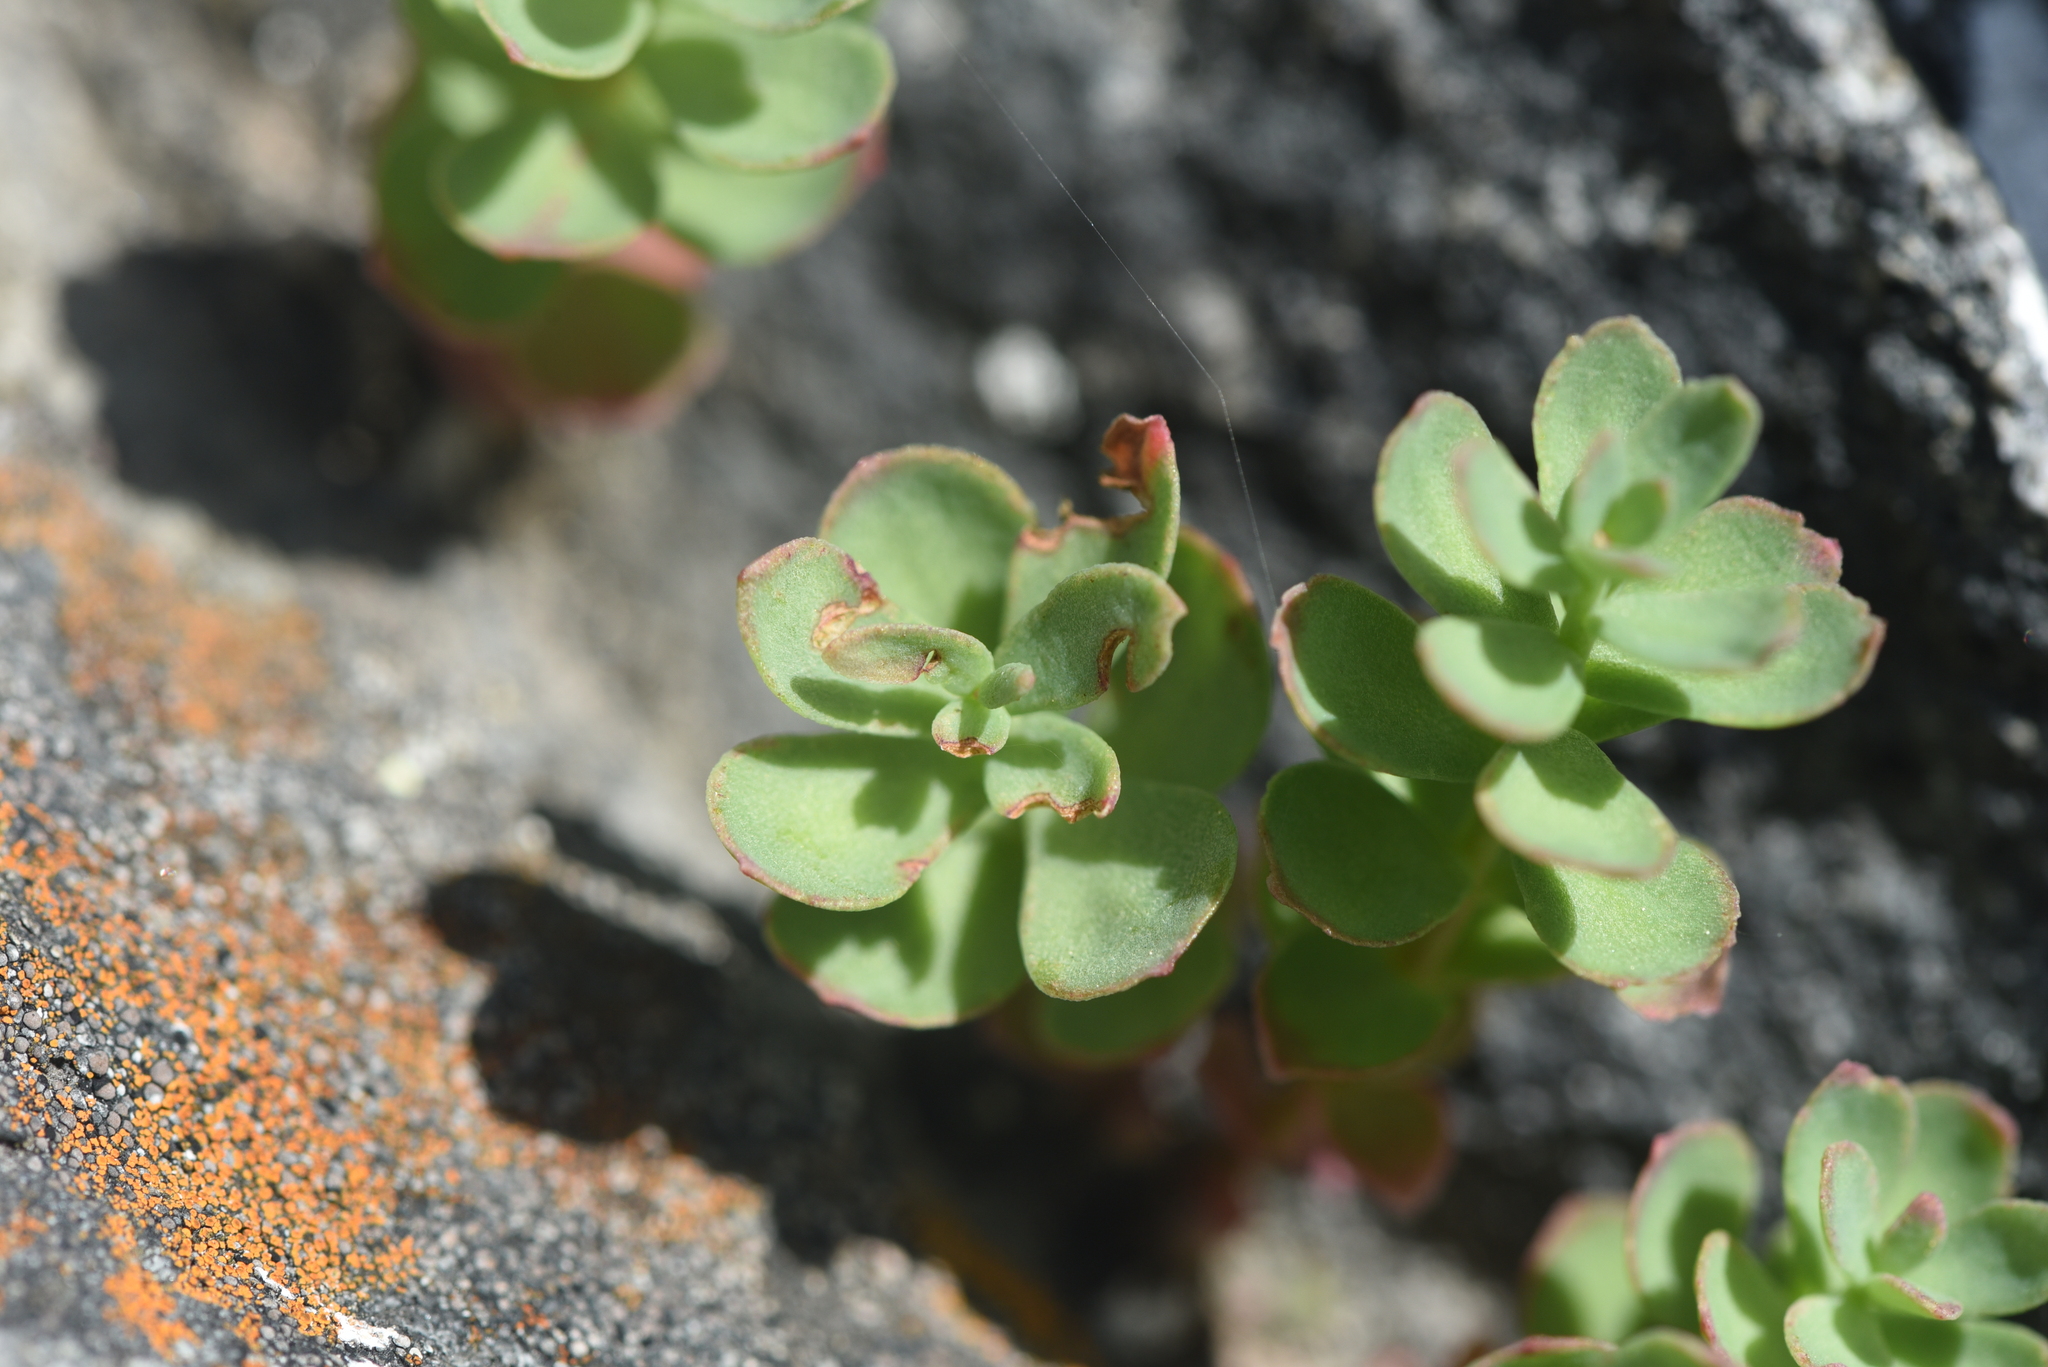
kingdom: Plantae
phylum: Tracheophyta
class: Magnoliopsida
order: Saxifragales
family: Crassulaceae
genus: Rhodiola
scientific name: Rhodiola integrifolia
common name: Western roseroot
